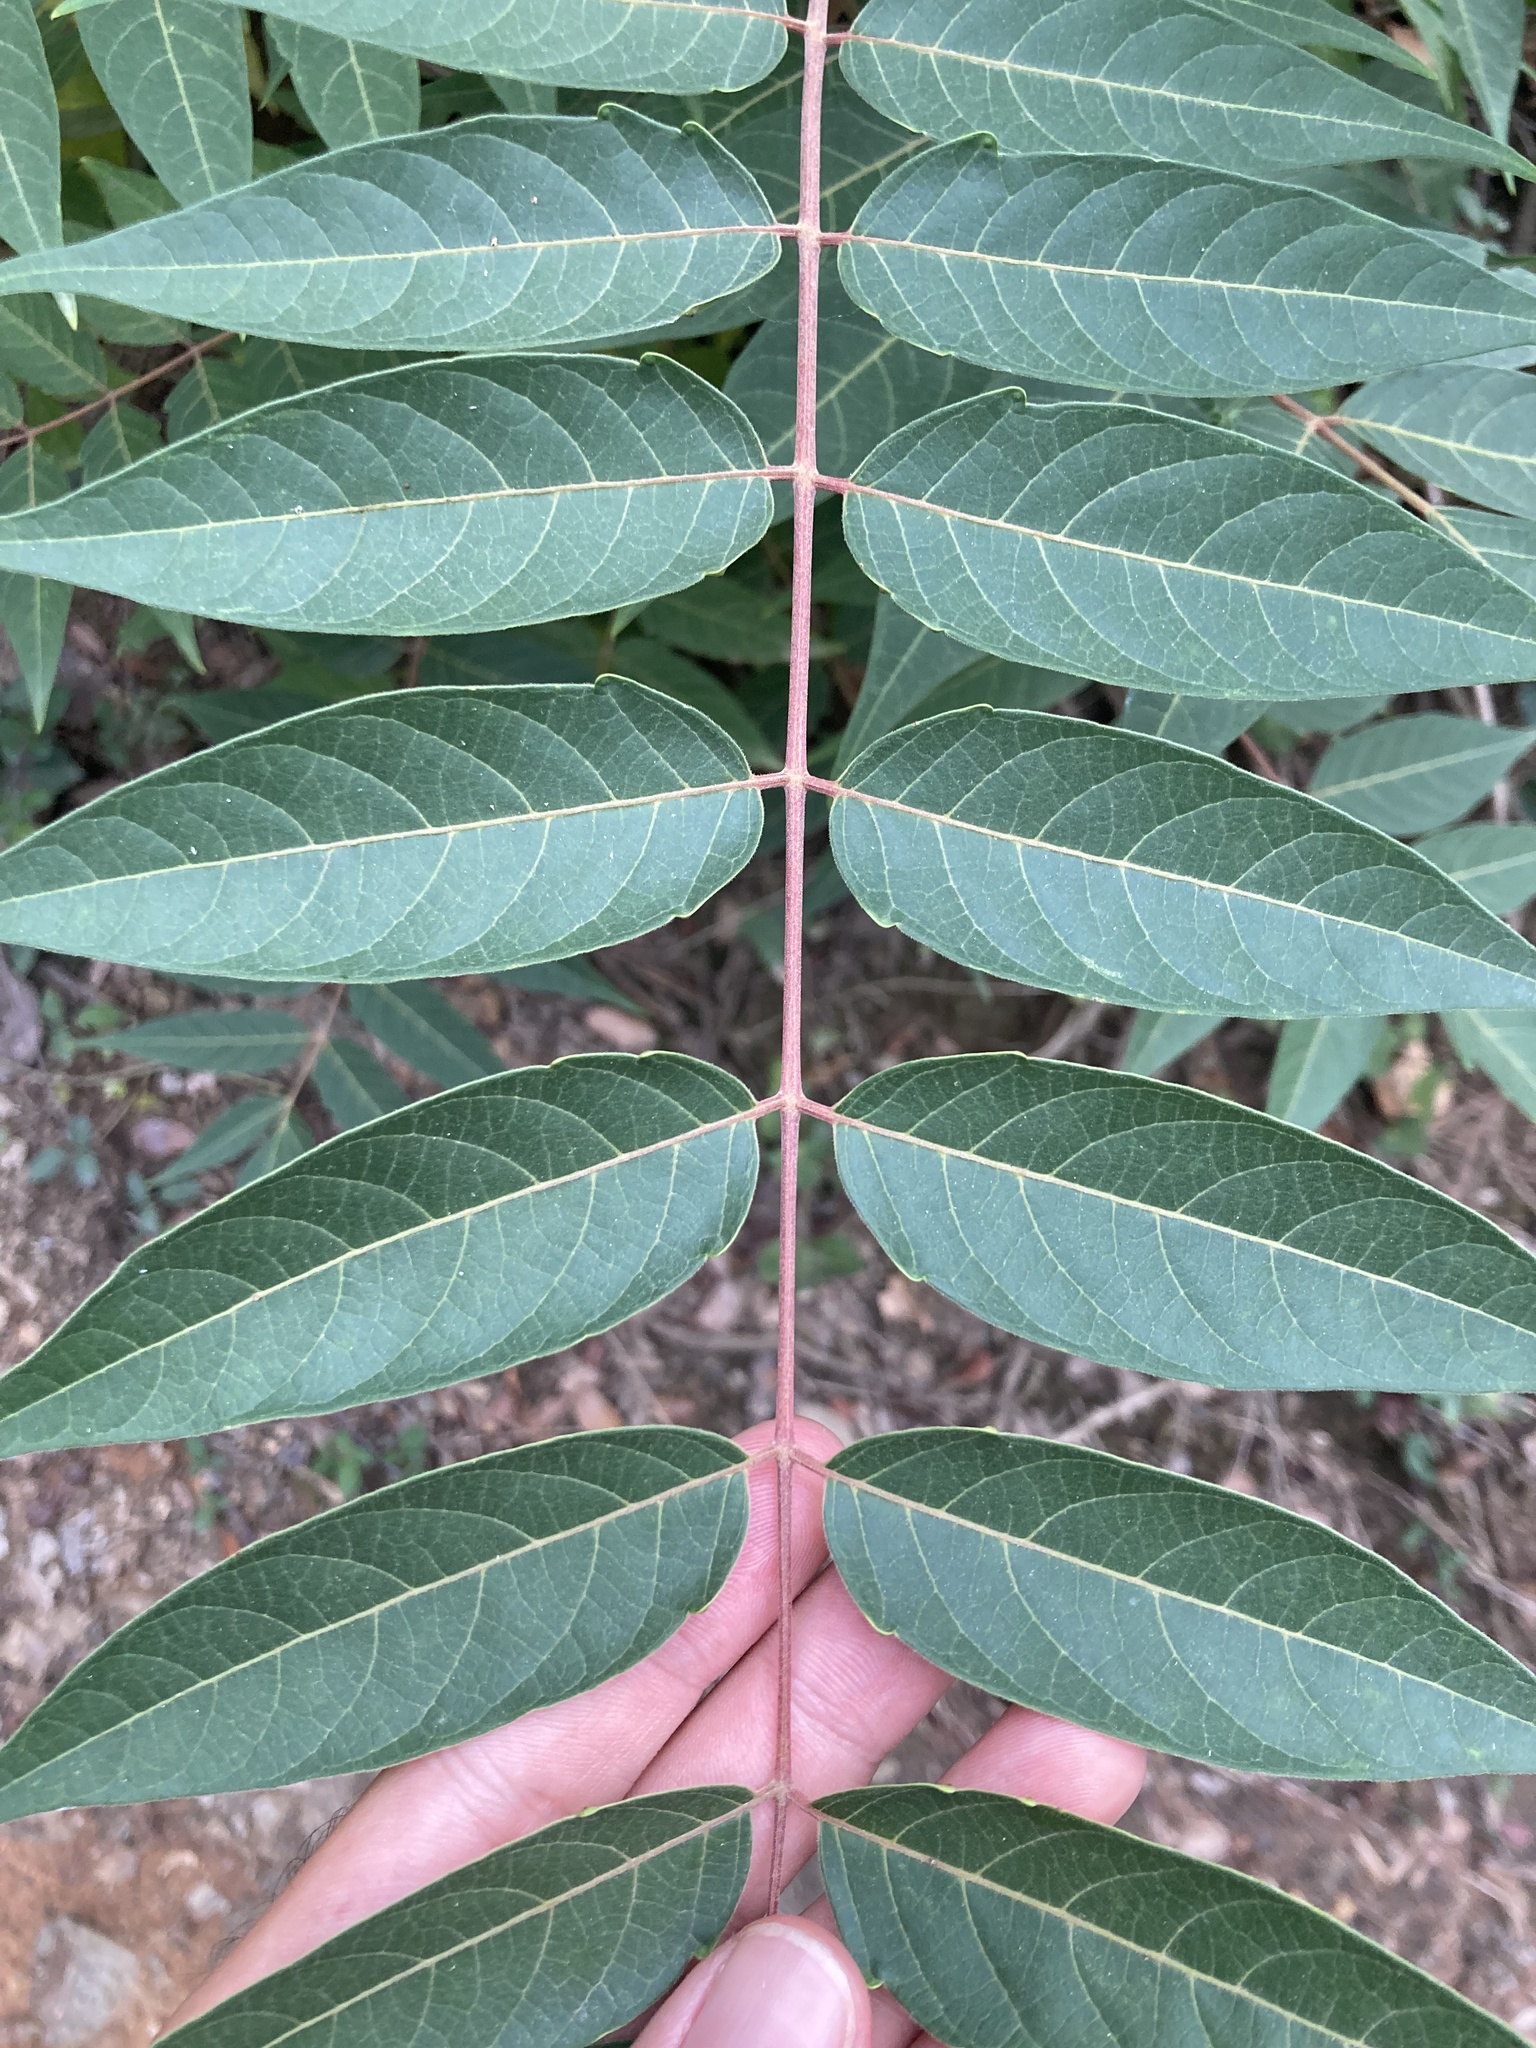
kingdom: Plantae
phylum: Tracheophyta
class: Magnoliopsida
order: Sapindales
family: Simaroubaceae
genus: Ailanthus
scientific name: Ailanthus altissima
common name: Tree-of-heaven
